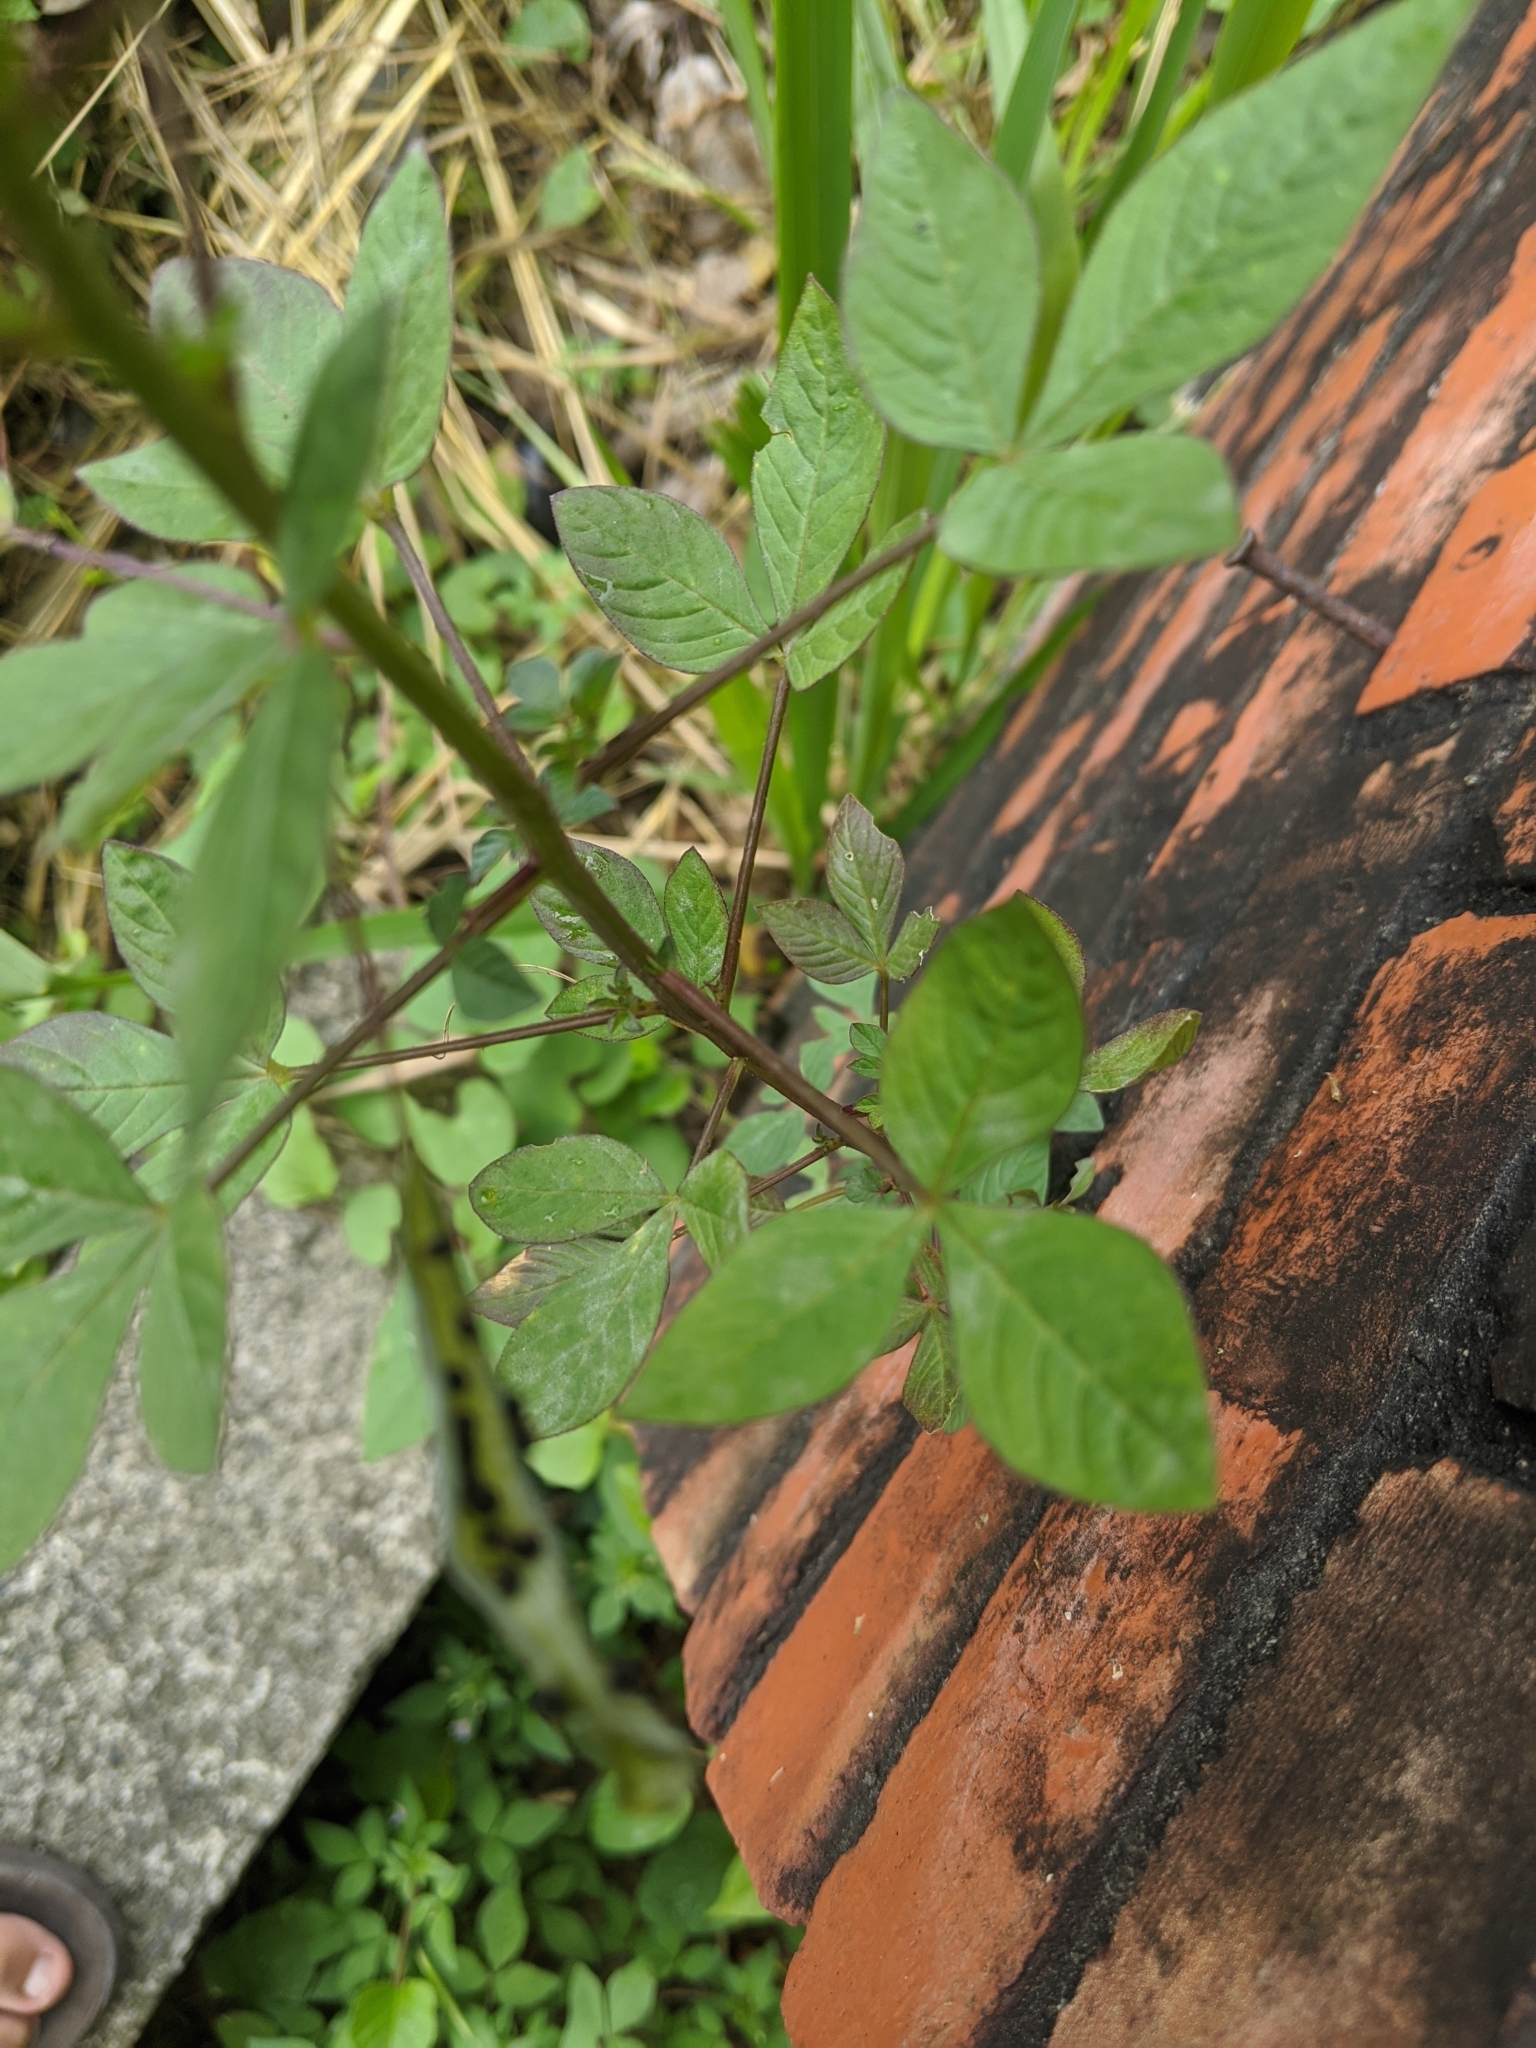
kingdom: Plantae
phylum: Tracheophyta
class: Magnoliopsida
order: Brassicales
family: Cleomaceae
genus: Sieruela
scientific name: Sieruela rutidosperma
